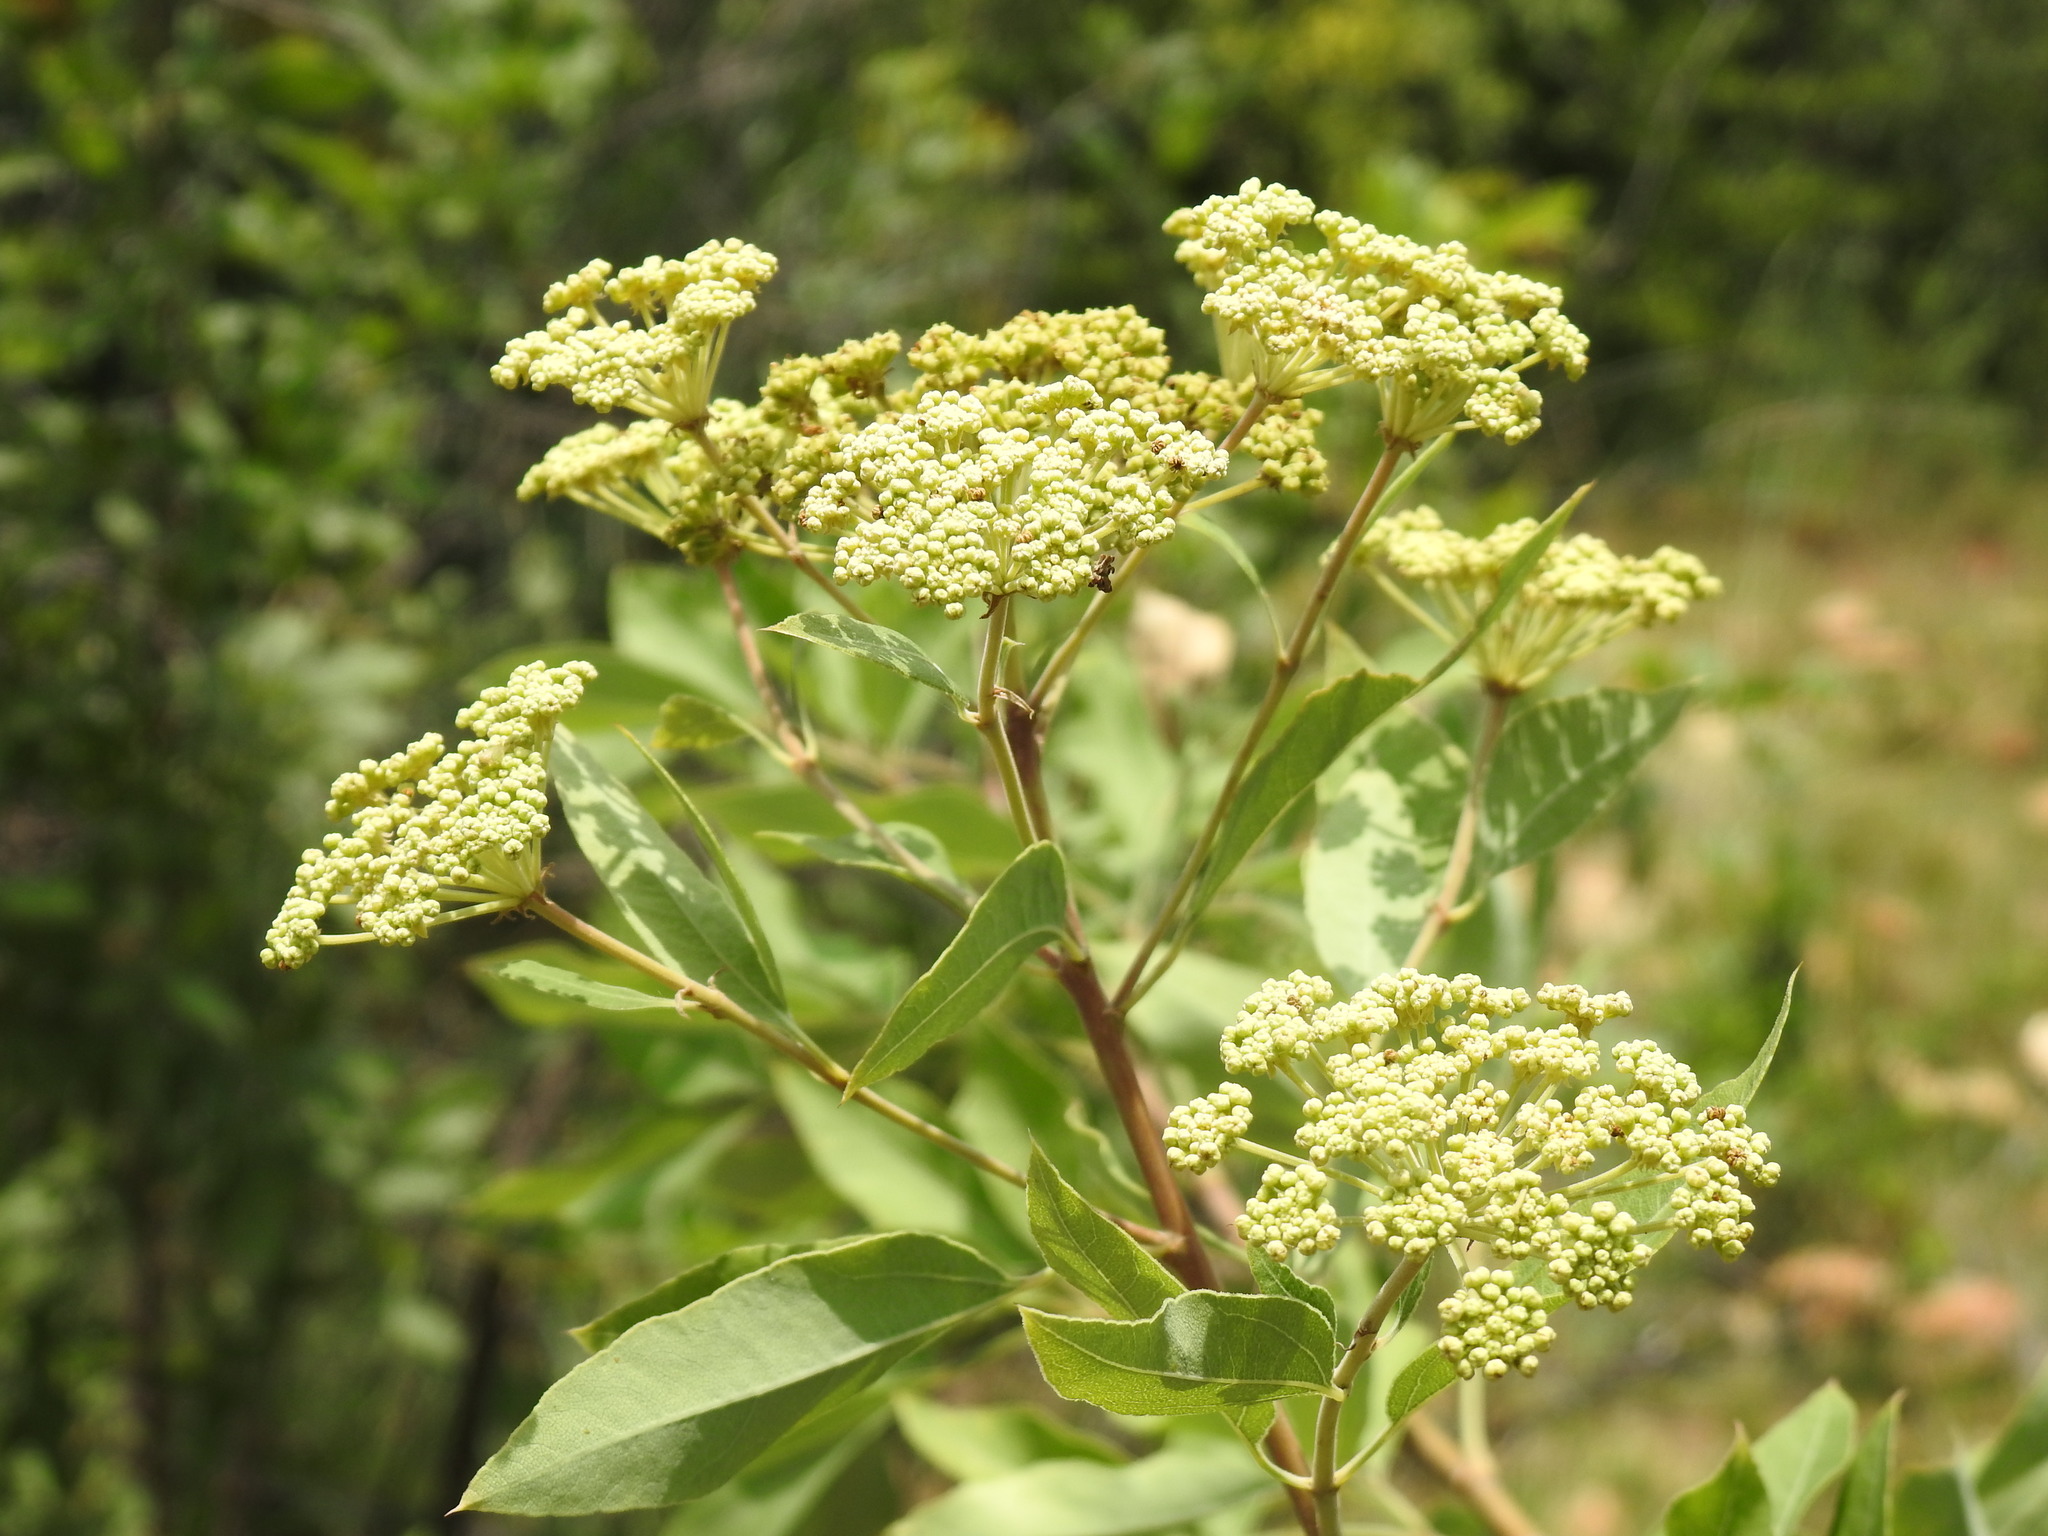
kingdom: Plantae
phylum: Tracheophyta
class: Magnoliopsida
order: Apiales
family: Apiaceae
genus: Heteromorpha
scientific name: Heteromorpha arborescens
